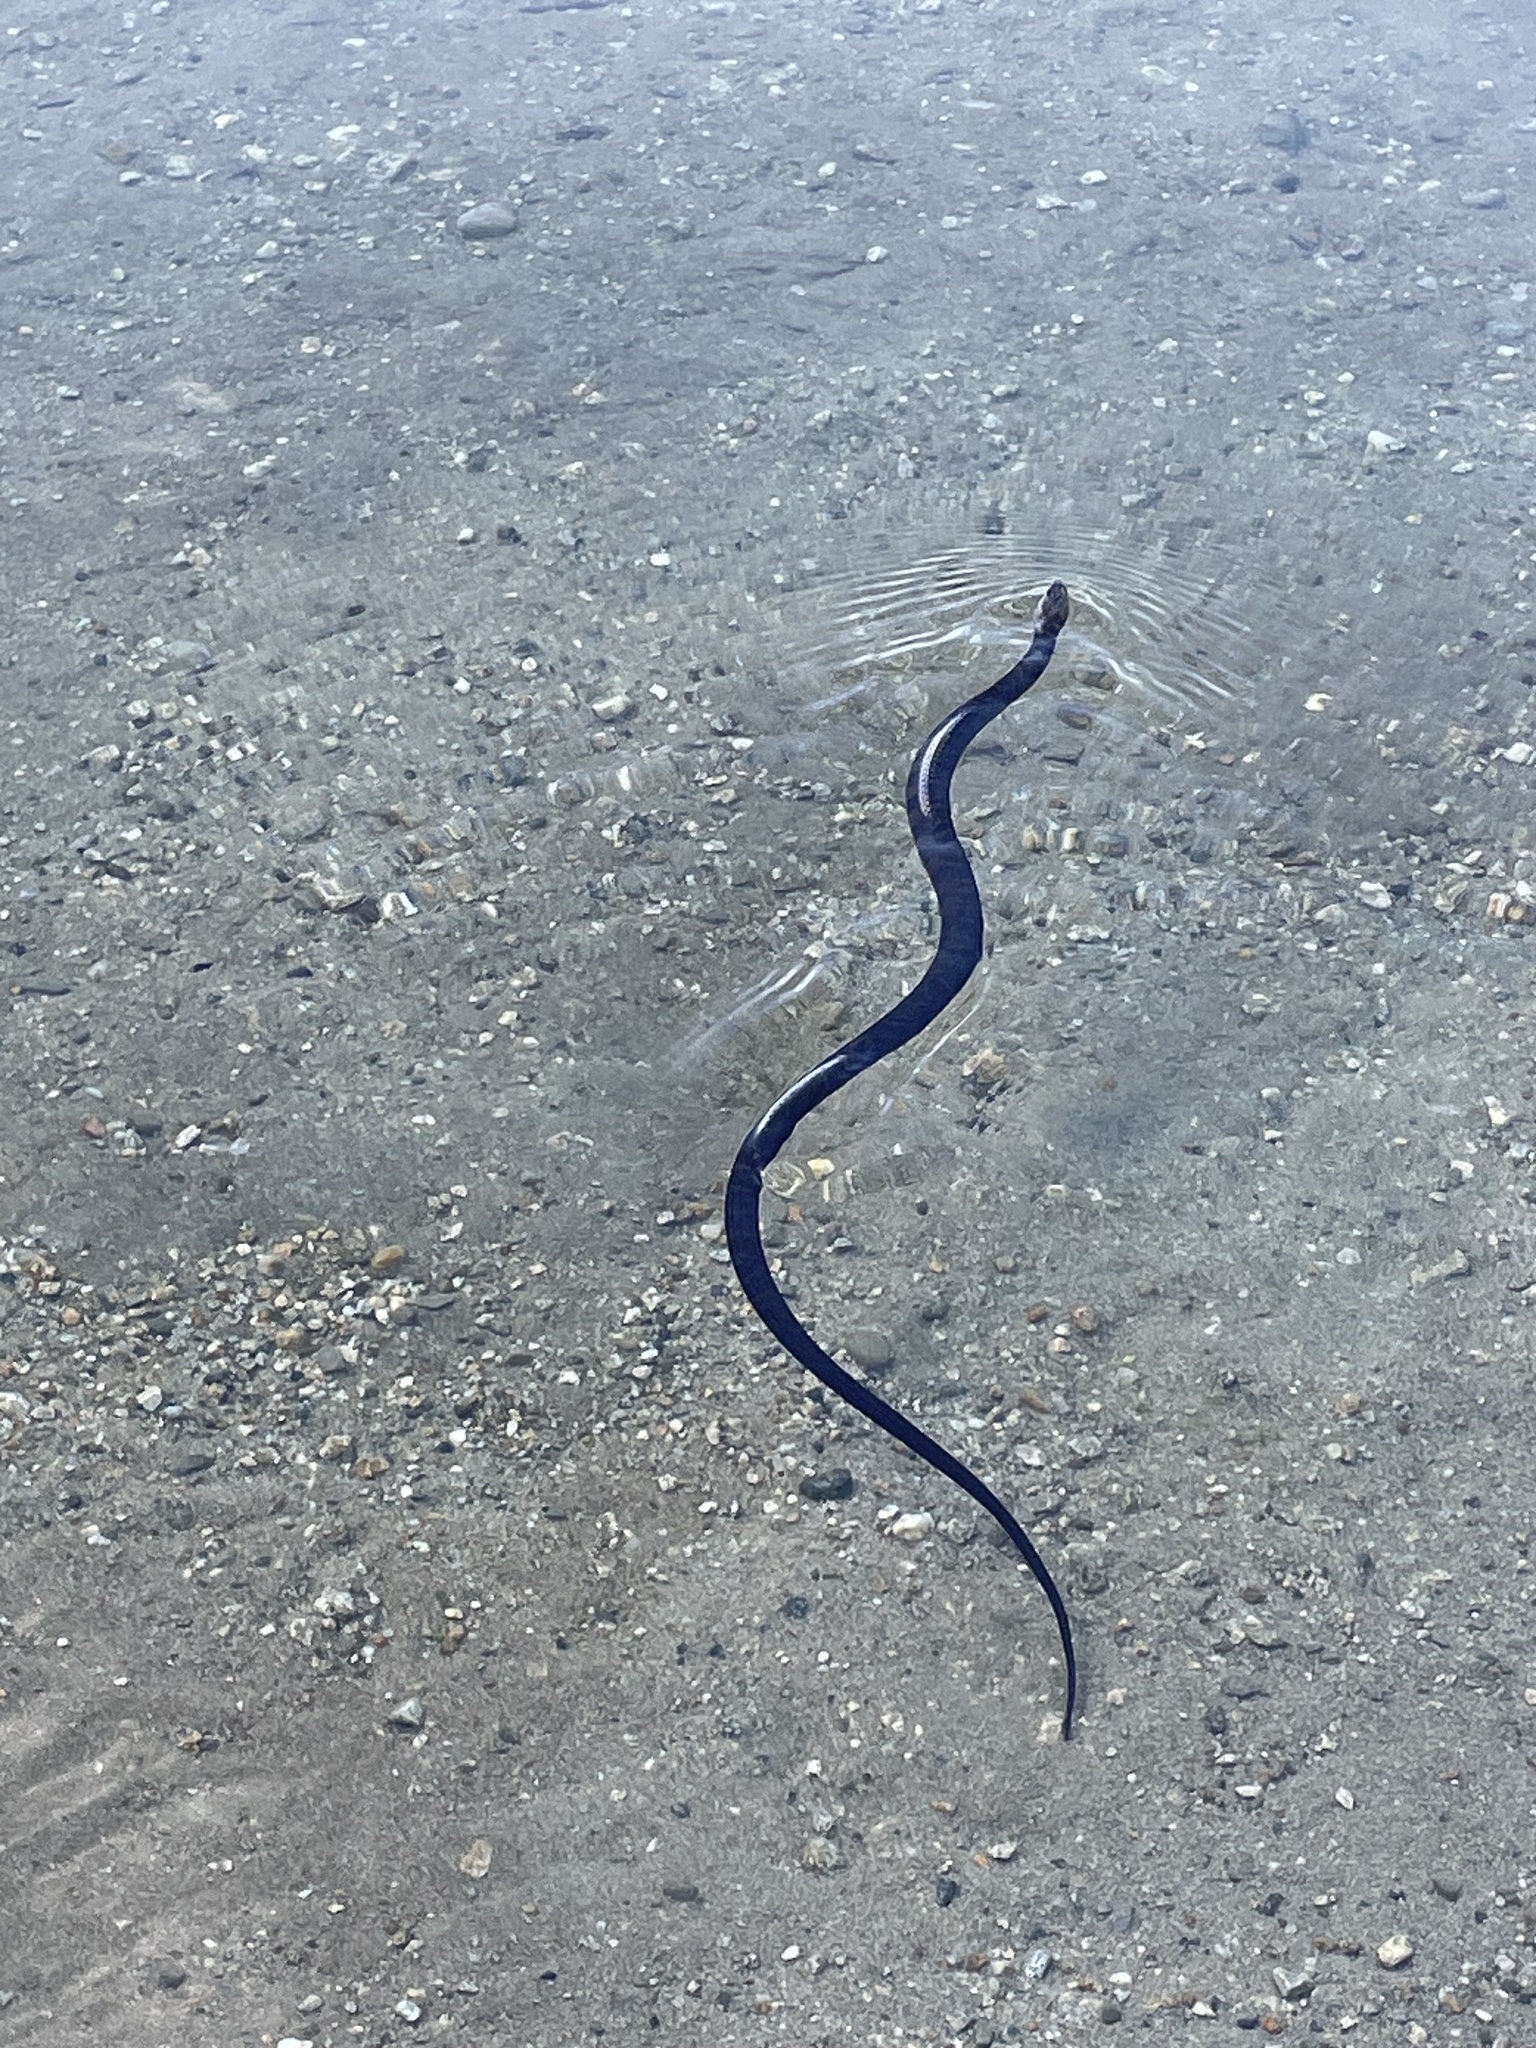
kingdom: Animalia
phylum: Chordata
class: Squamata
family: Colubridae
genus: Nerodia
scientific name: Nerodia sipedon
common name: Northern water snake
